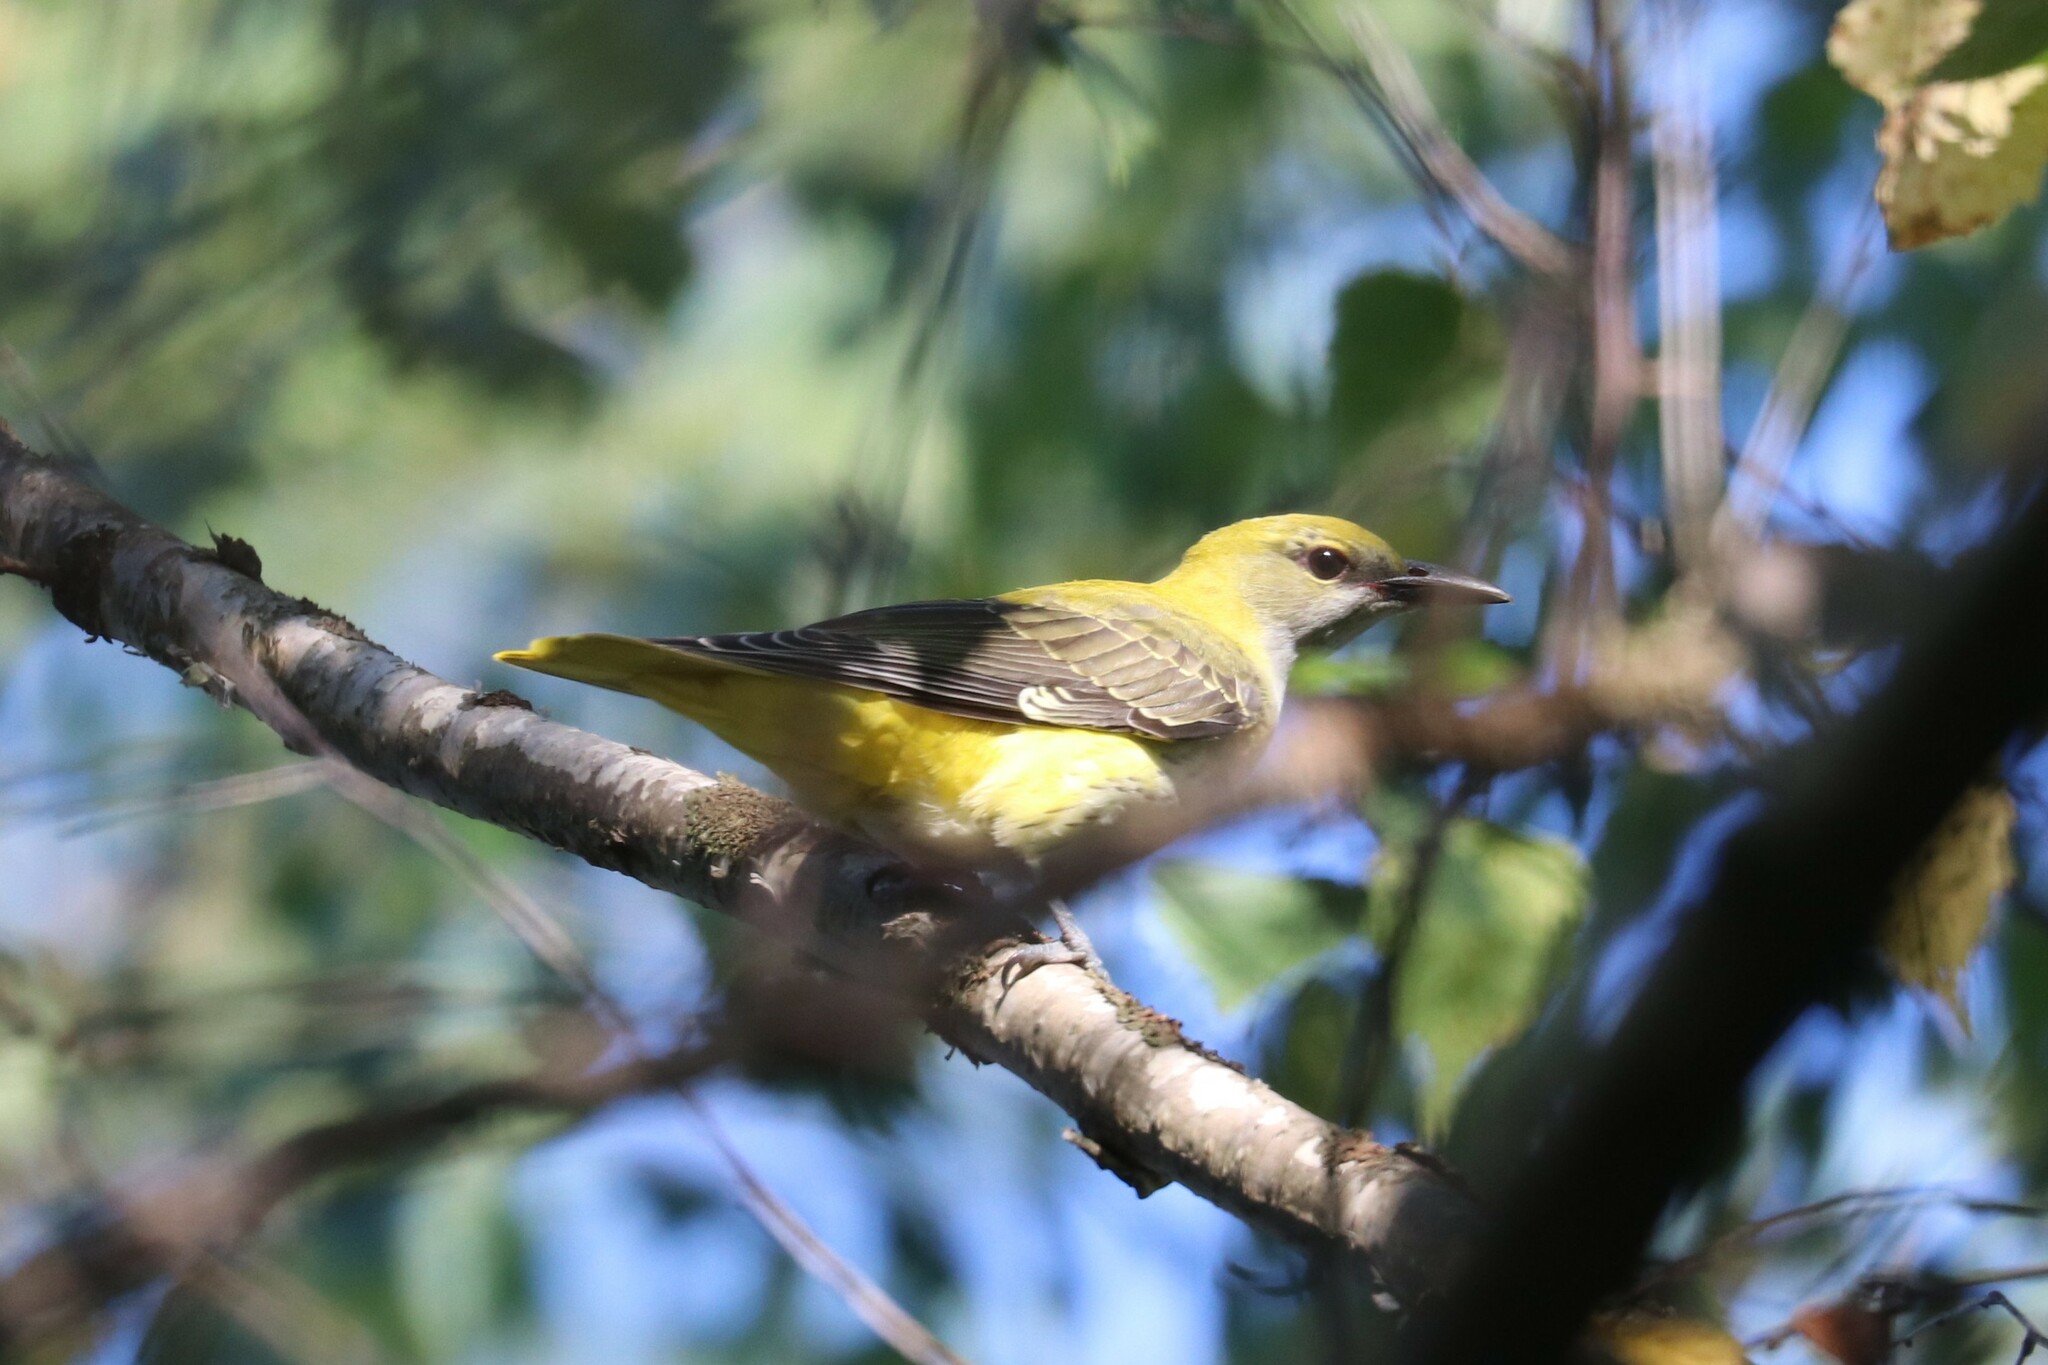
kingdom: Animalia
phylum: Chordata
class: Aves
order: Passeriformes
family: Oriolidae
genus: Oriolus
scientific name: Oriolus oriolus
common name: Eurasian golden oriole
